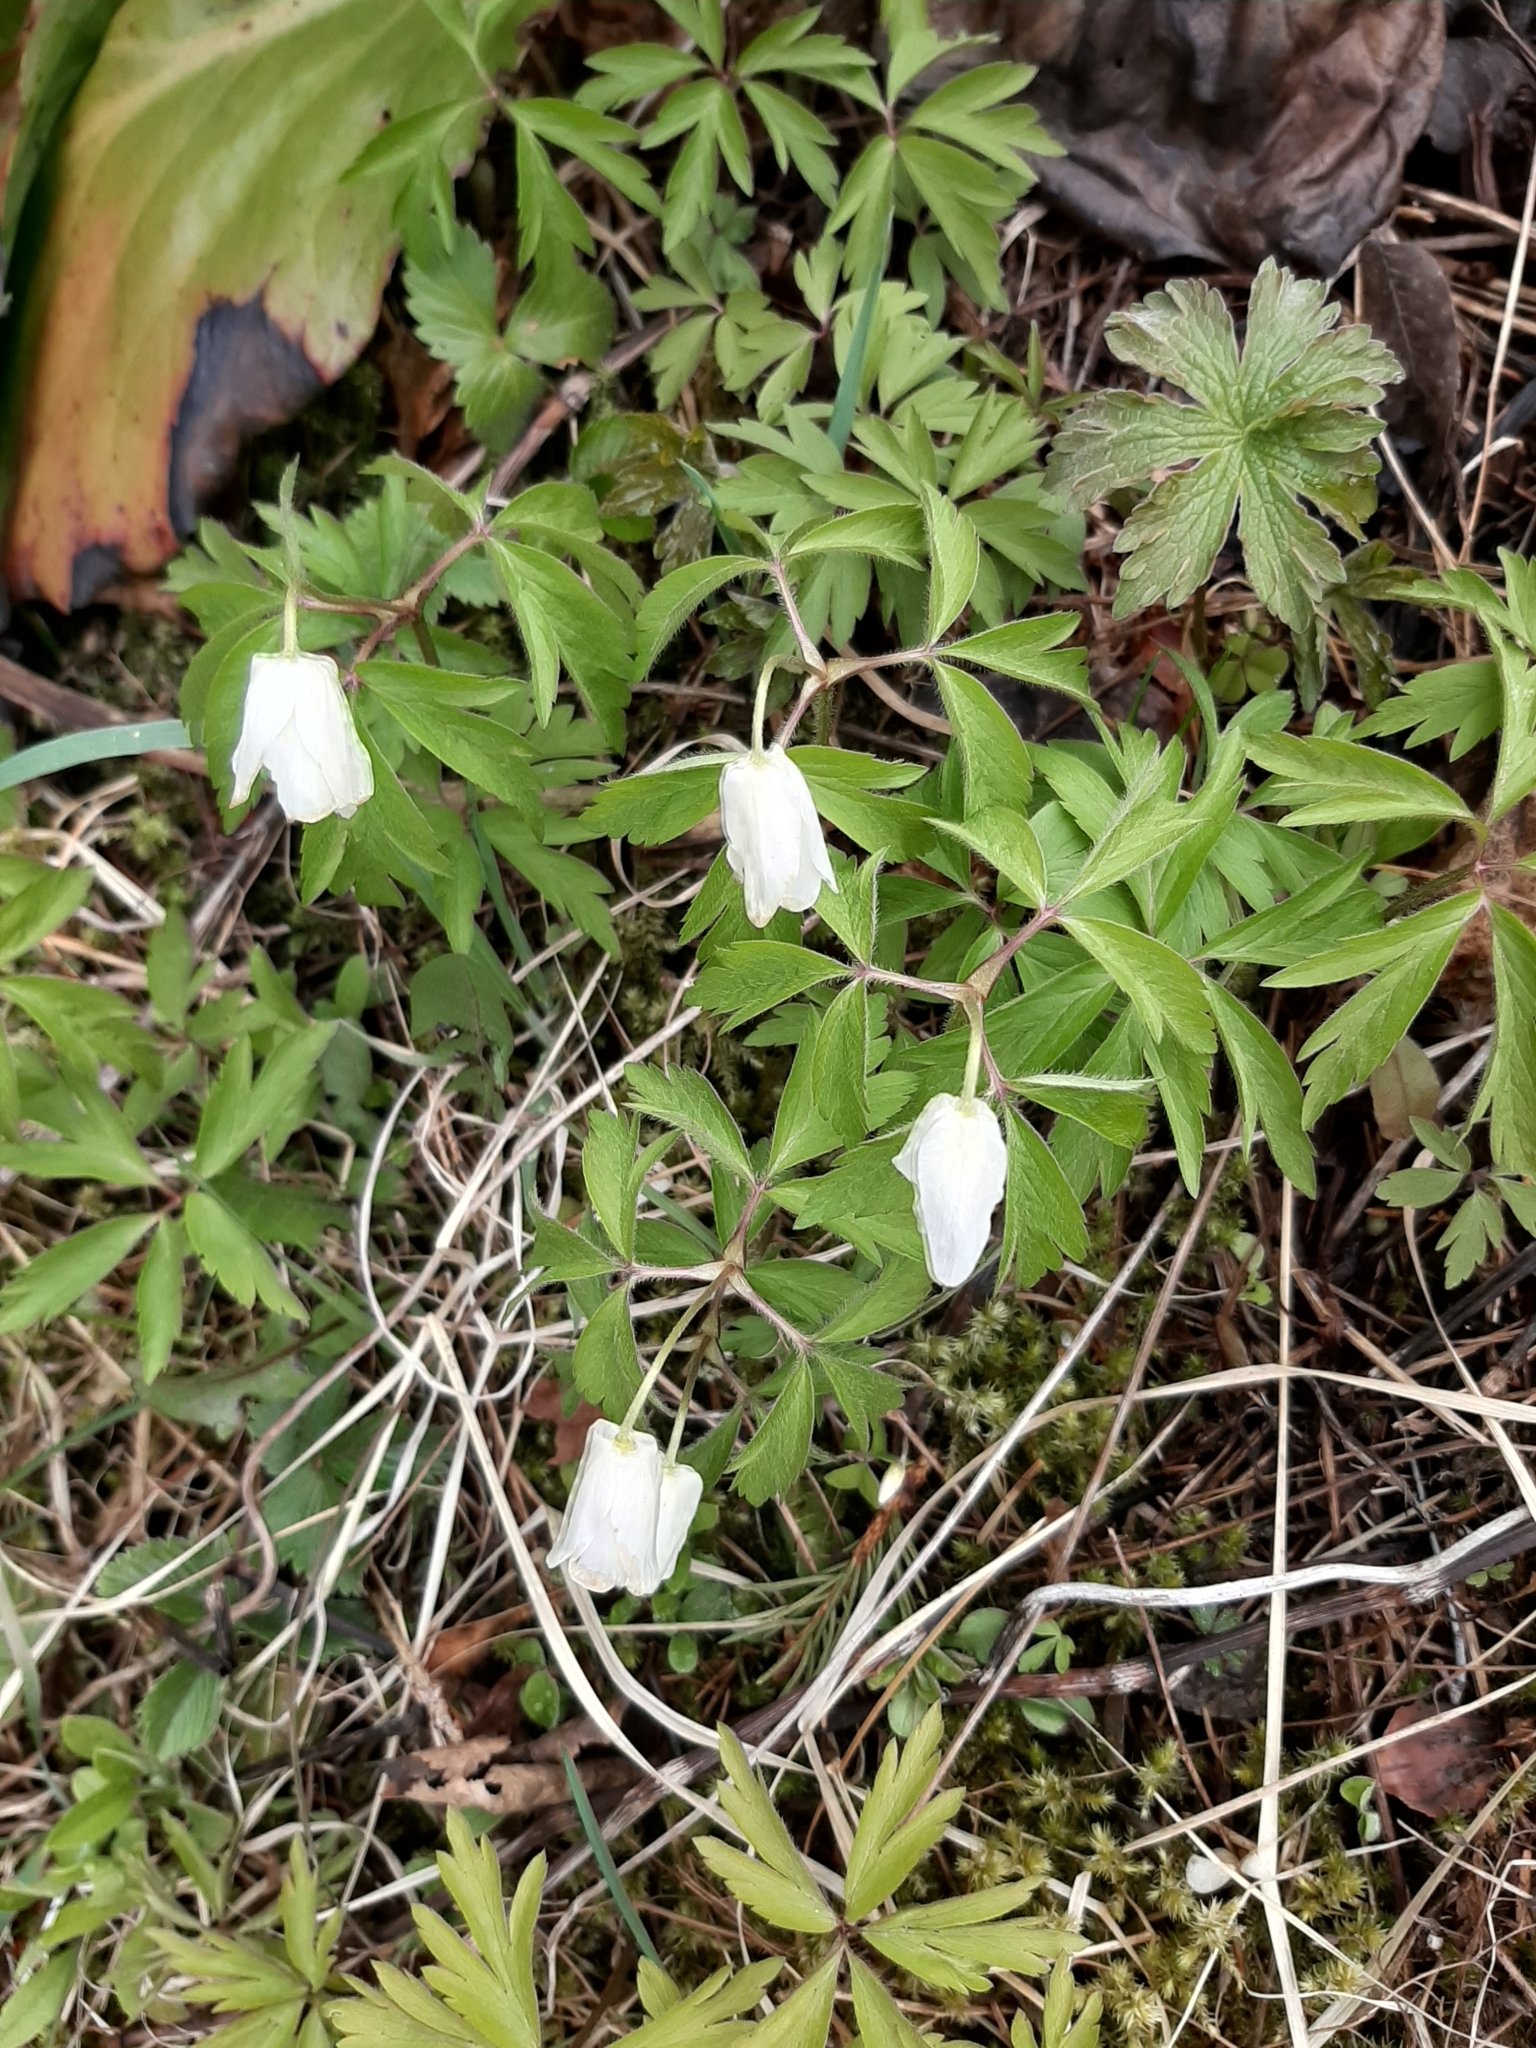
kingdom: Plantae
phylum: Tracheophyta
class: Magnoliopsida
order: Ranunculales
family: Ranunculaceae
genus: Anemone
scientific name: Anemone nemorosa
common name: Wood anemone
